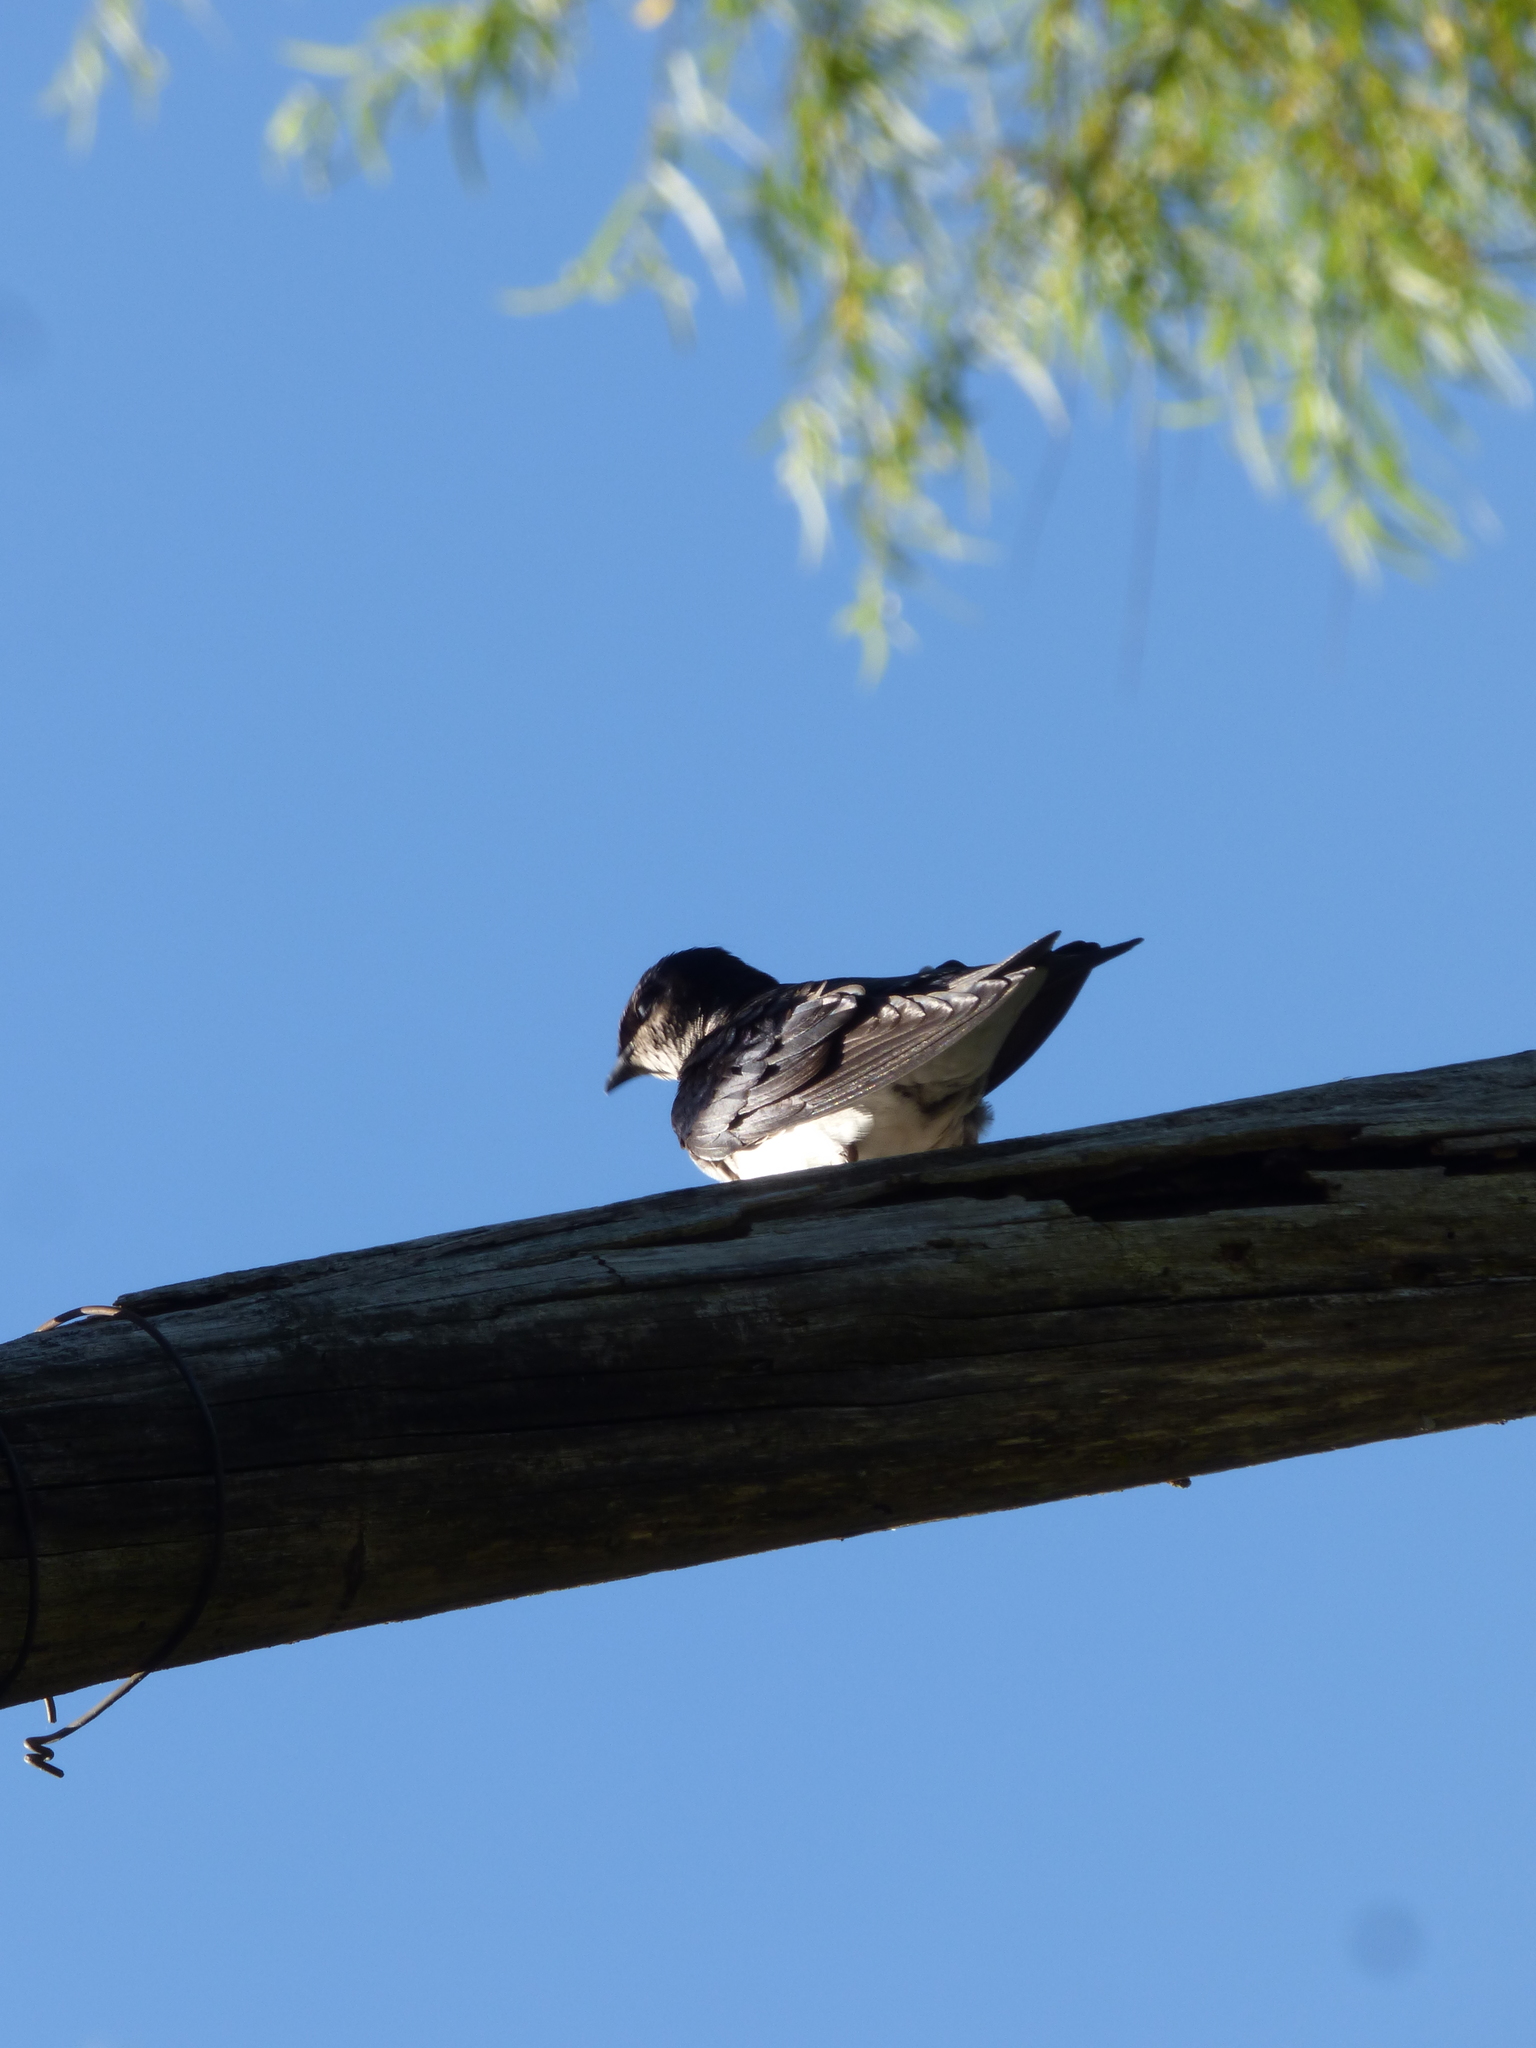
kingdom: Animalia
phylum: Chordata
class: Aves
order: Passeriformes
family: Hirundinidae
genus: Progne
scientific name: Progne chalybea
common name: Grey-breasted martin
